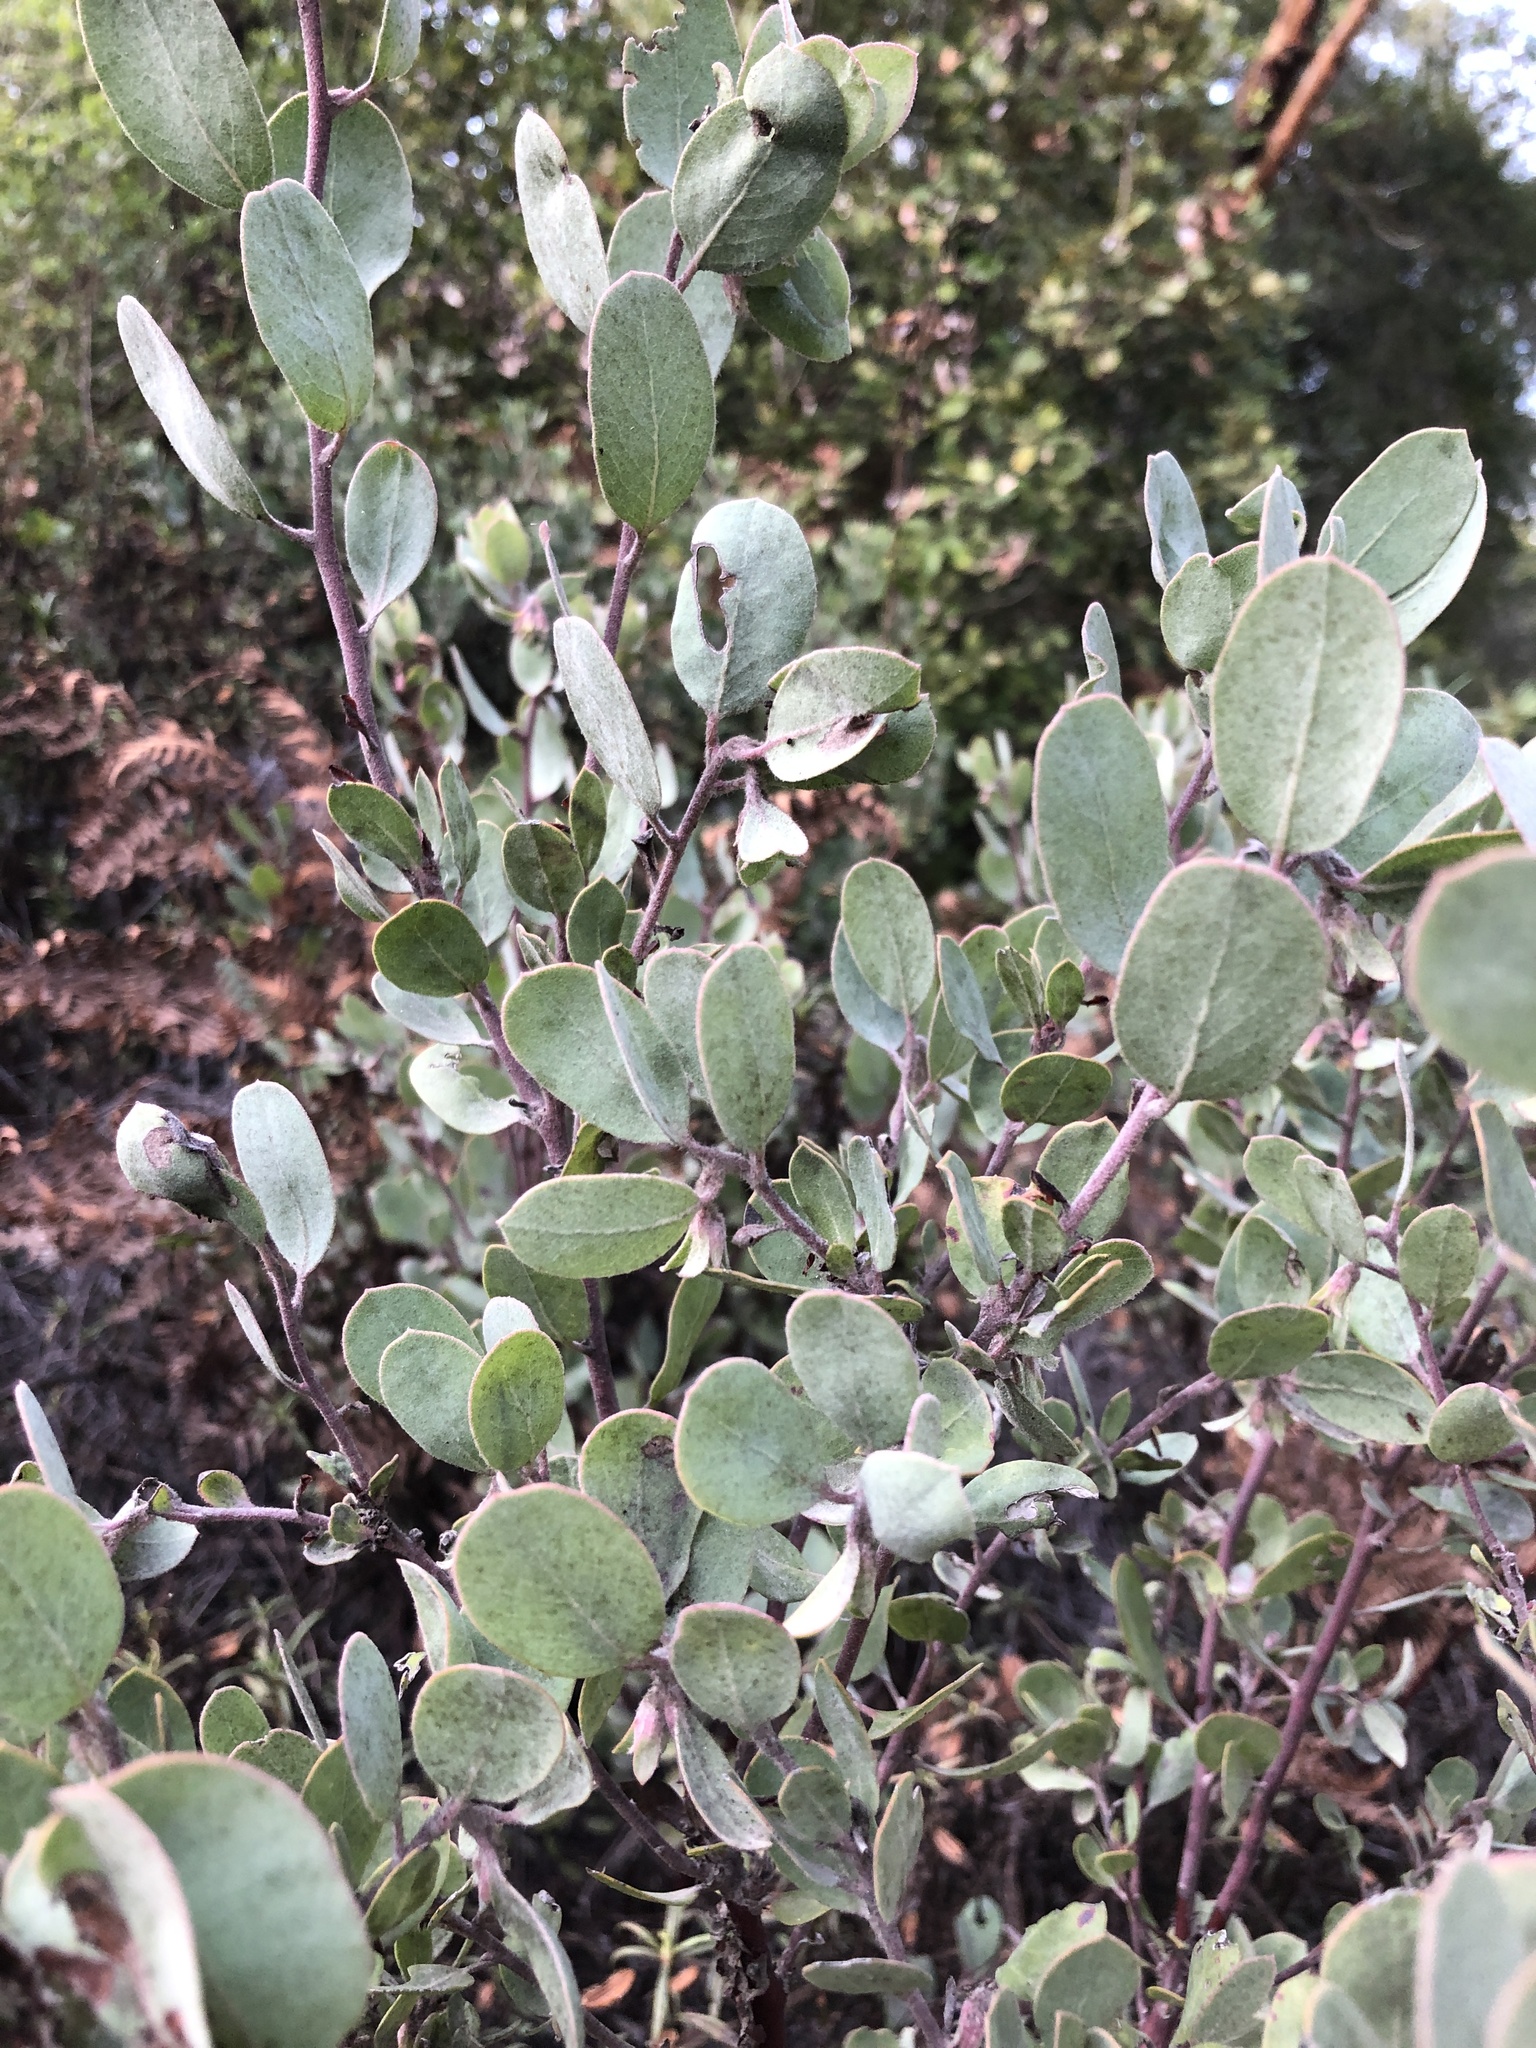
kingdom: Plantae
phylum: Tracheophyta
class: Magnoliopsida
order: Ericales
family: Ericaceae
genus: Arctostaphylos
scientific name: Arctostaphylos silvicola
